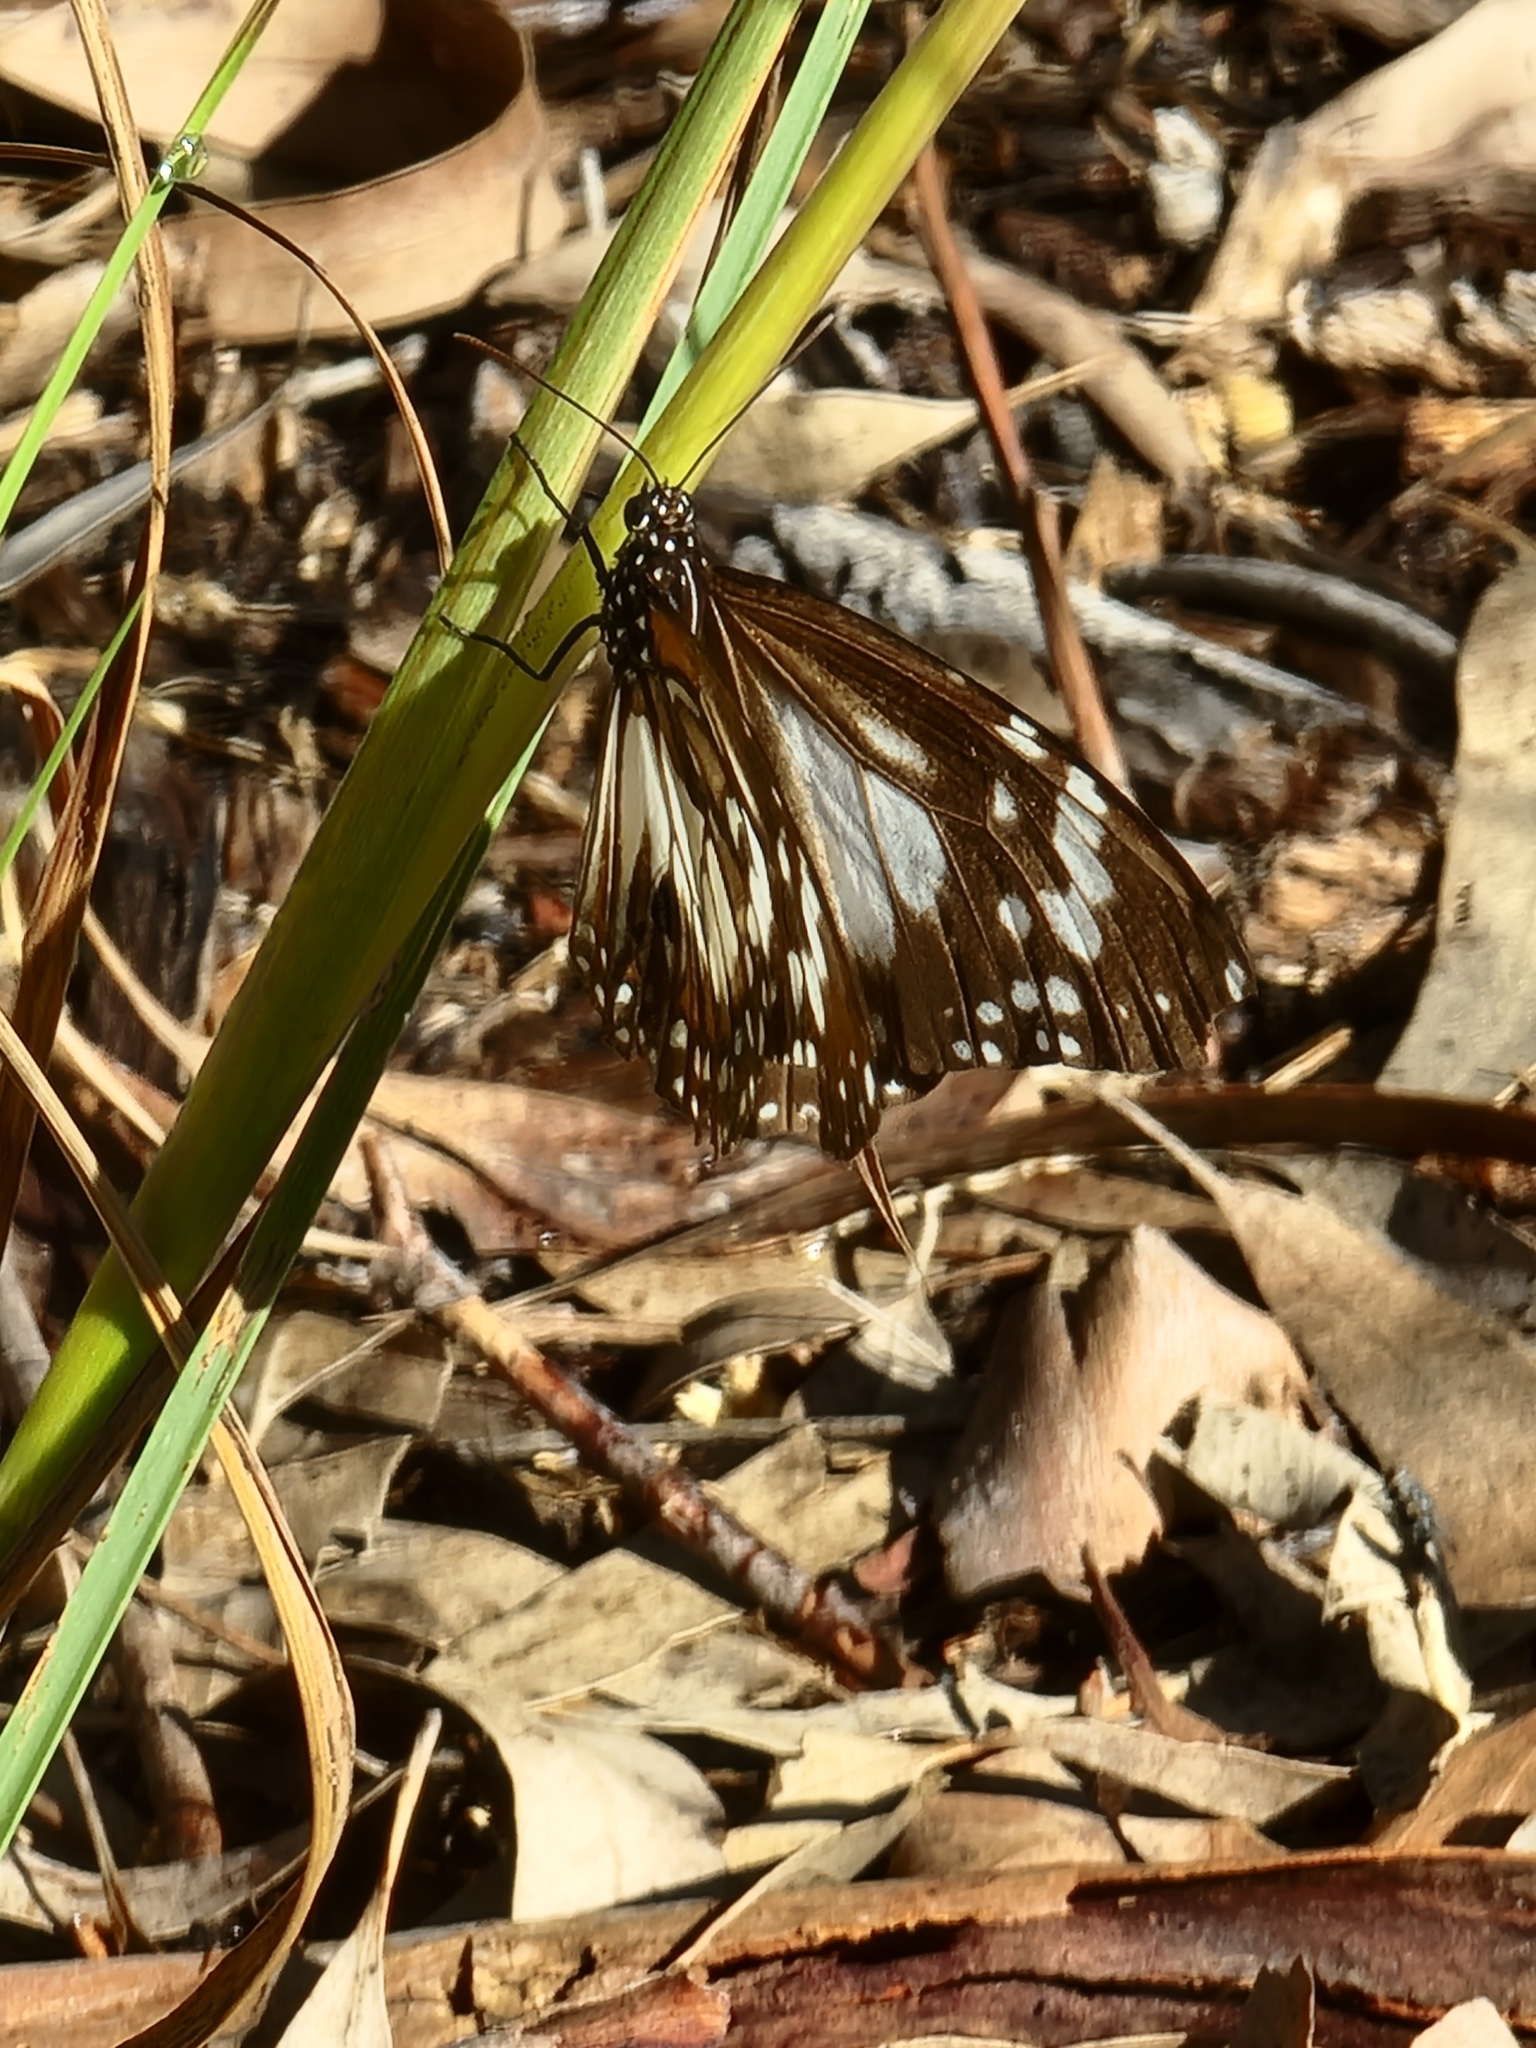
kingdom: Animalia
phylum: Arthropoda
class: Insecta
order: Lepidoptera
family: Nymphalidae
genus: Danaus
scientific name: Danaus affinis
